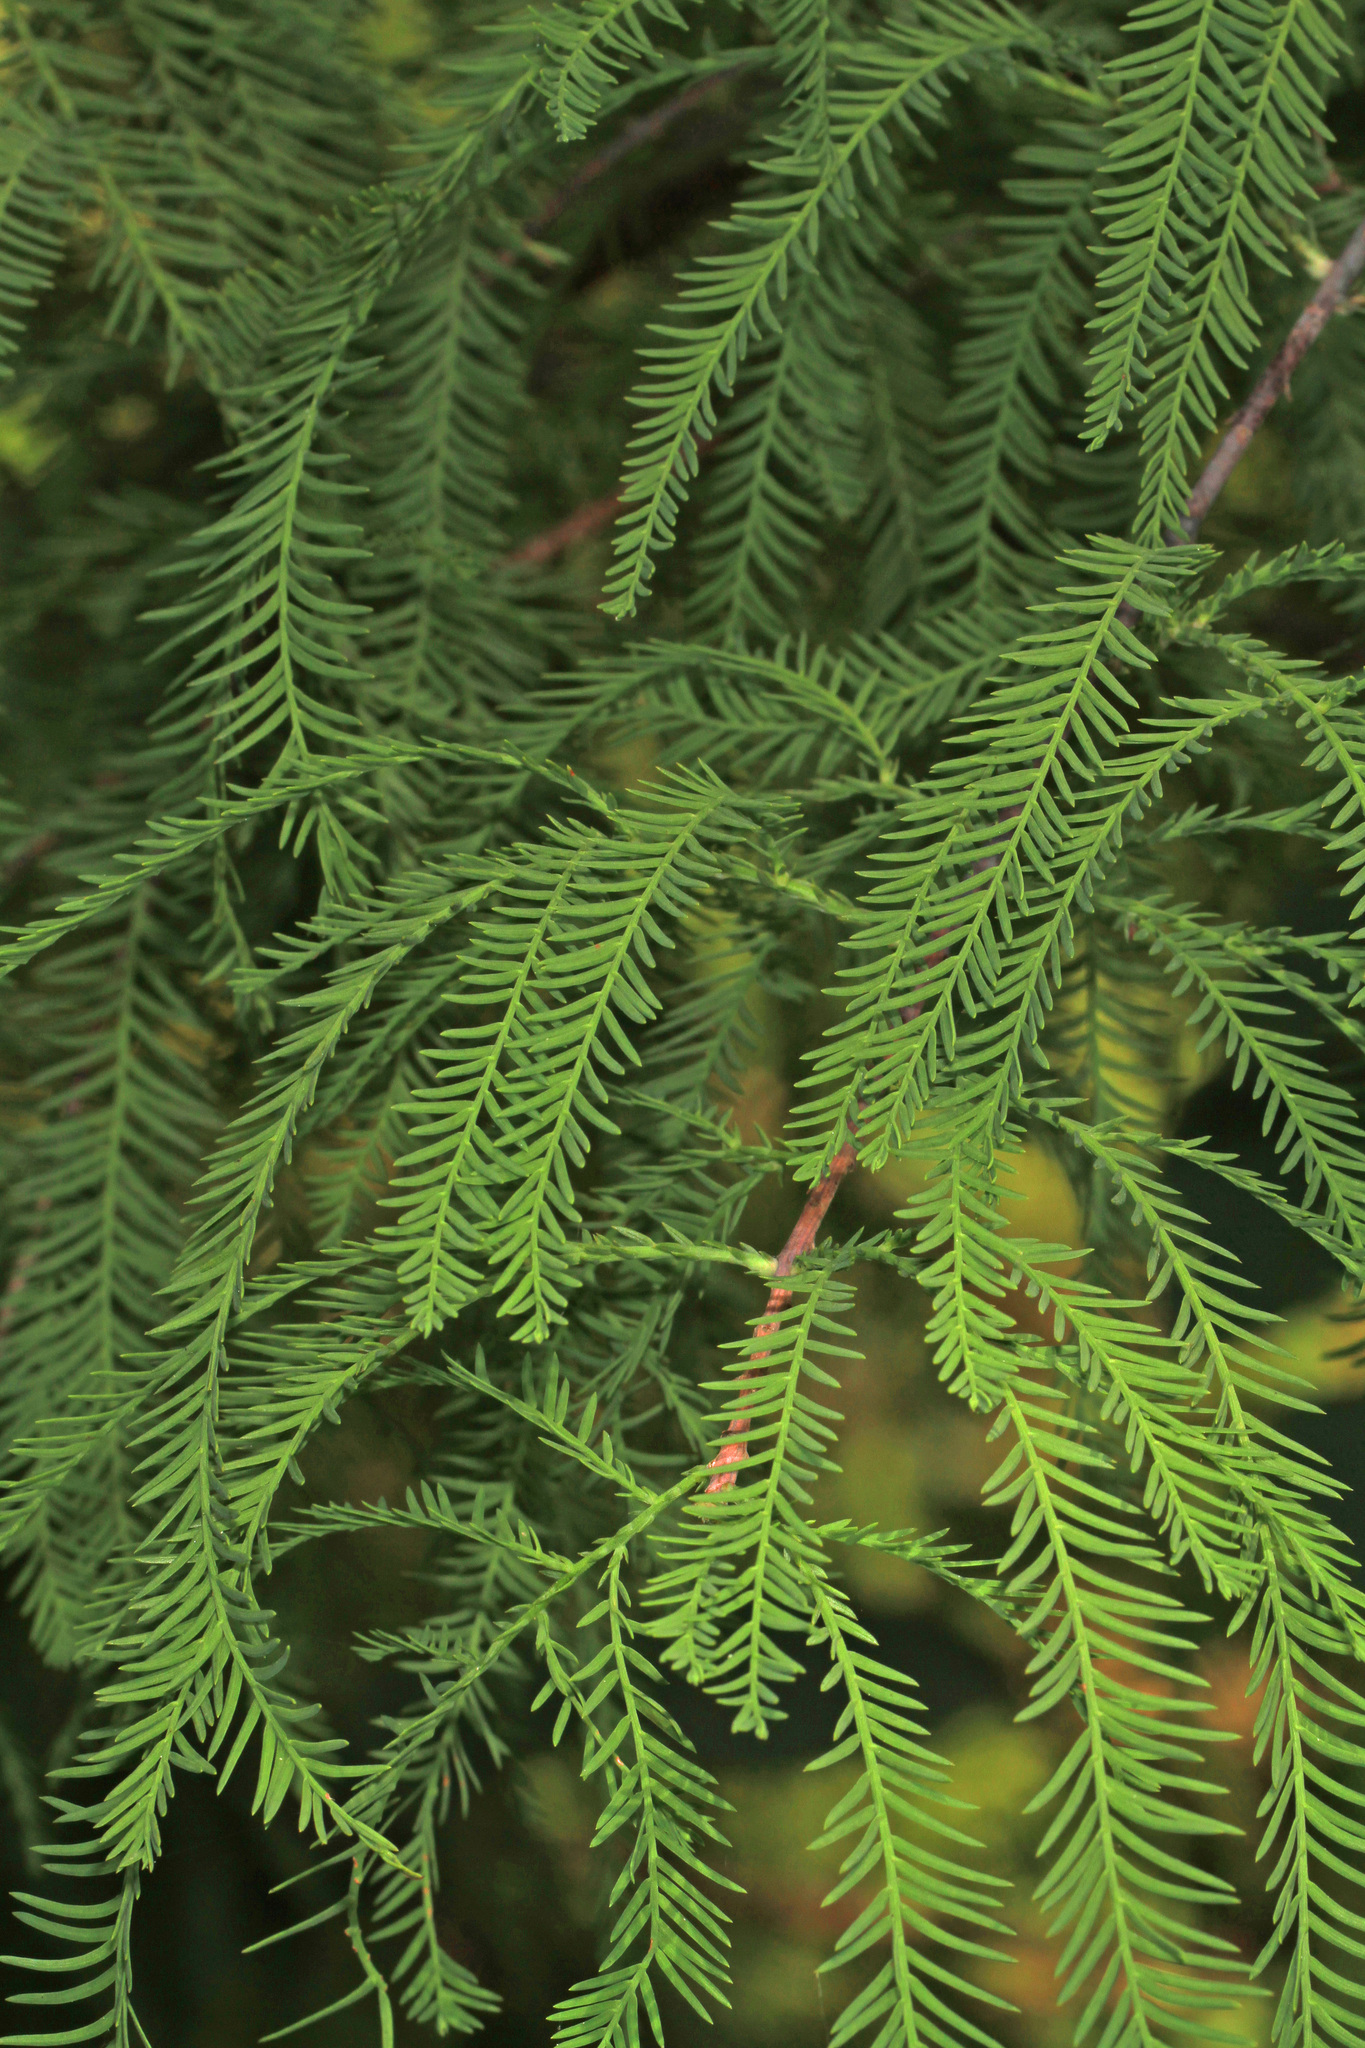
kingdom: Plantae
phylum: Tracheophyta
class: Pinopsida
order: Pinales
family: Cupressaceae
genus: Taxodium
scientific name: Taxodium distichum
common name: Bald cypress
